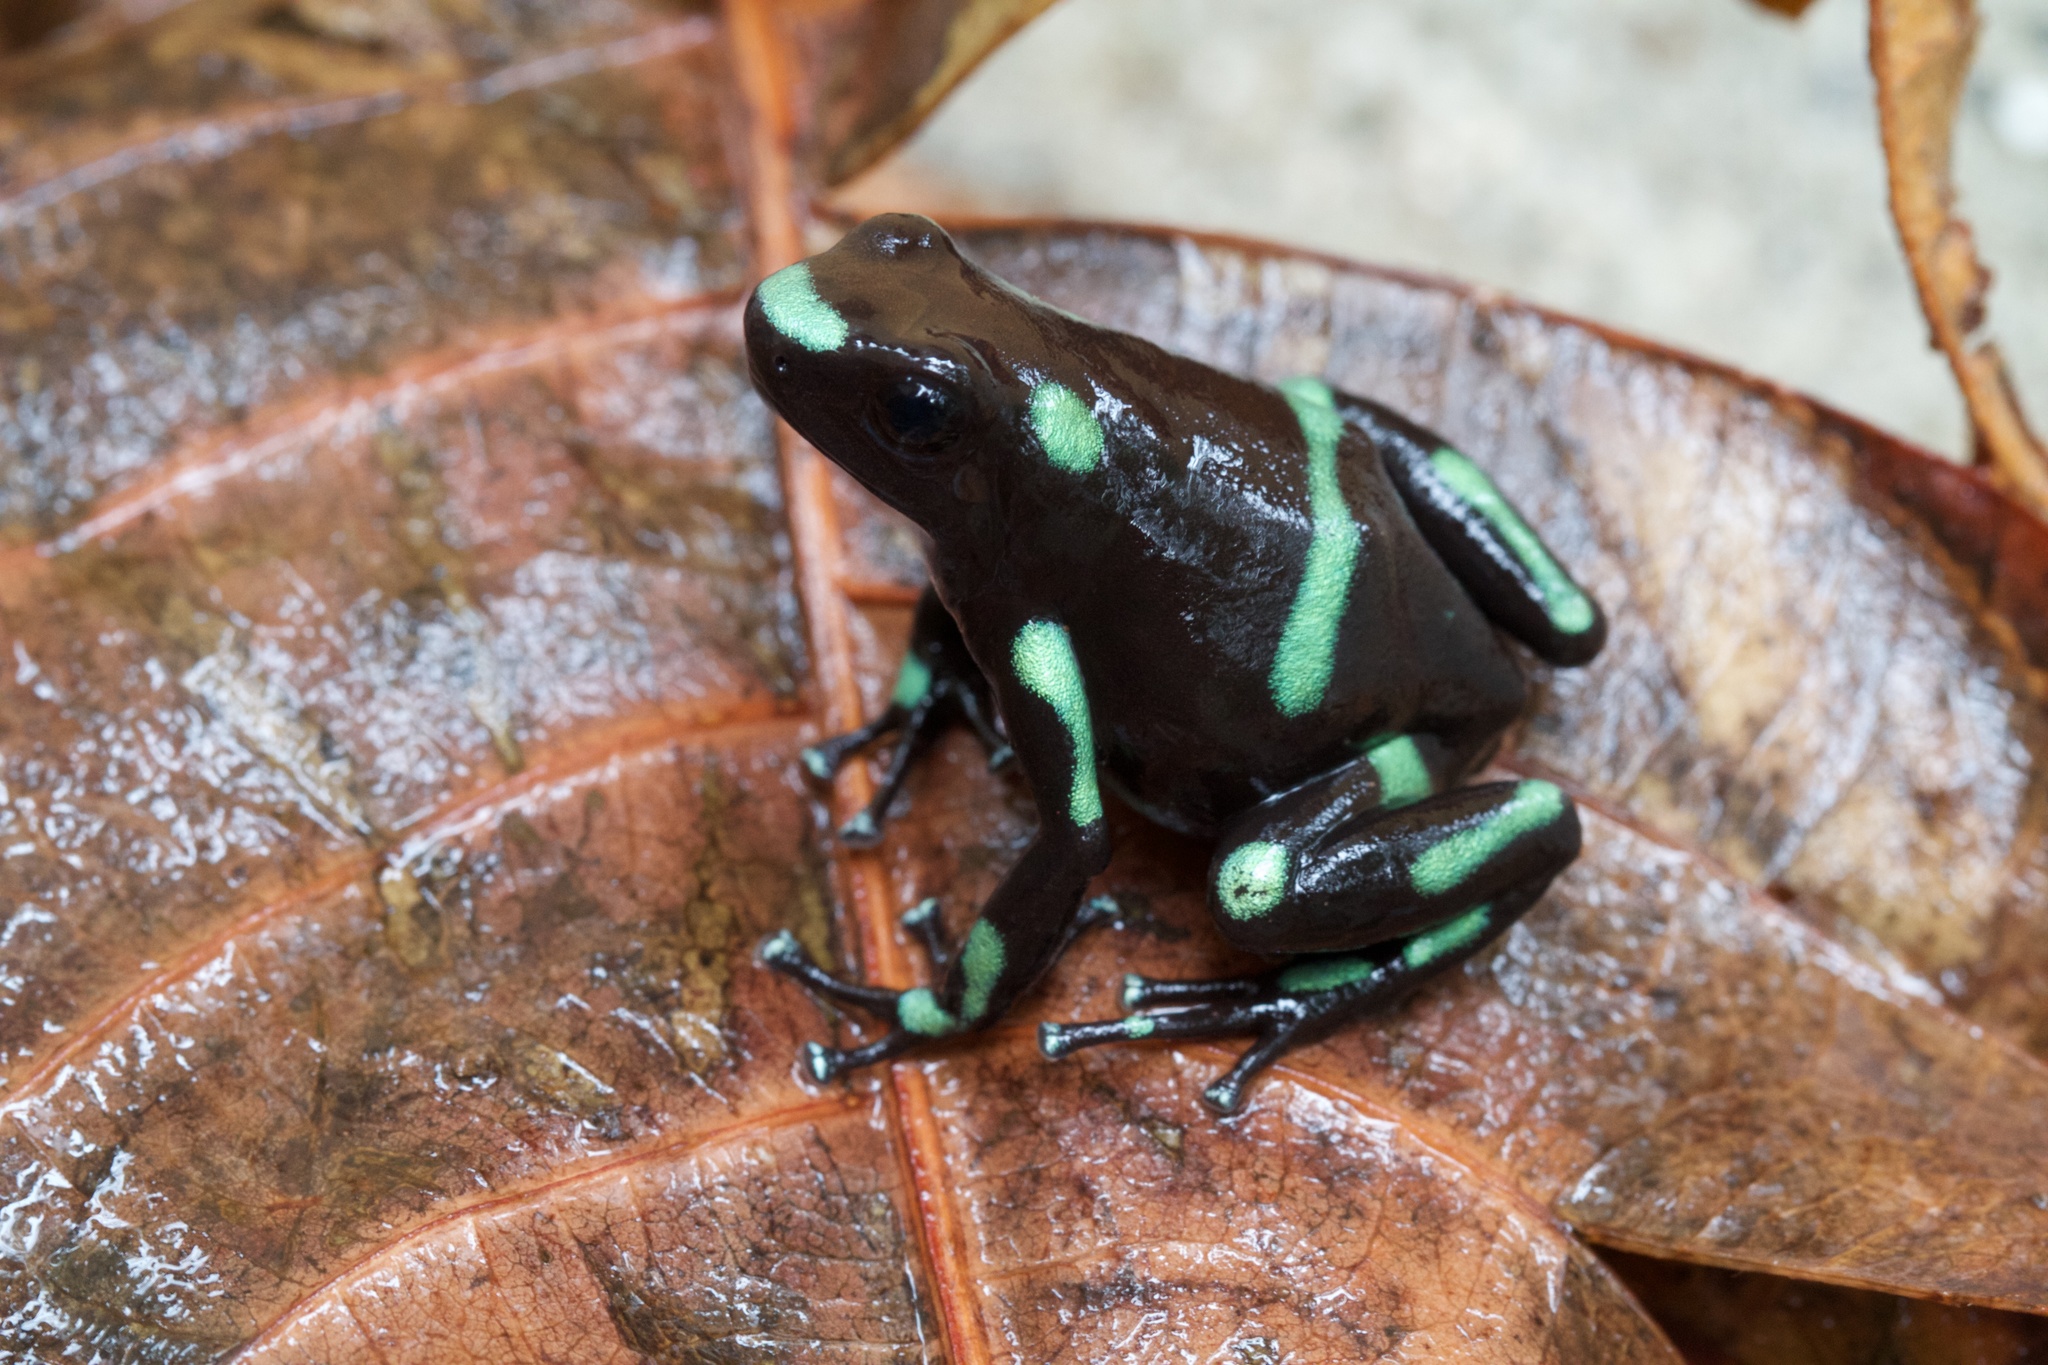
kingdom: Animalia
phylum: Chordata
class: Amphibia
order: Anura
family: Dendrobatidae
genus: Dendrobates
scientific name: Dendrobates auratus
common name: Green and black poison dart frog
